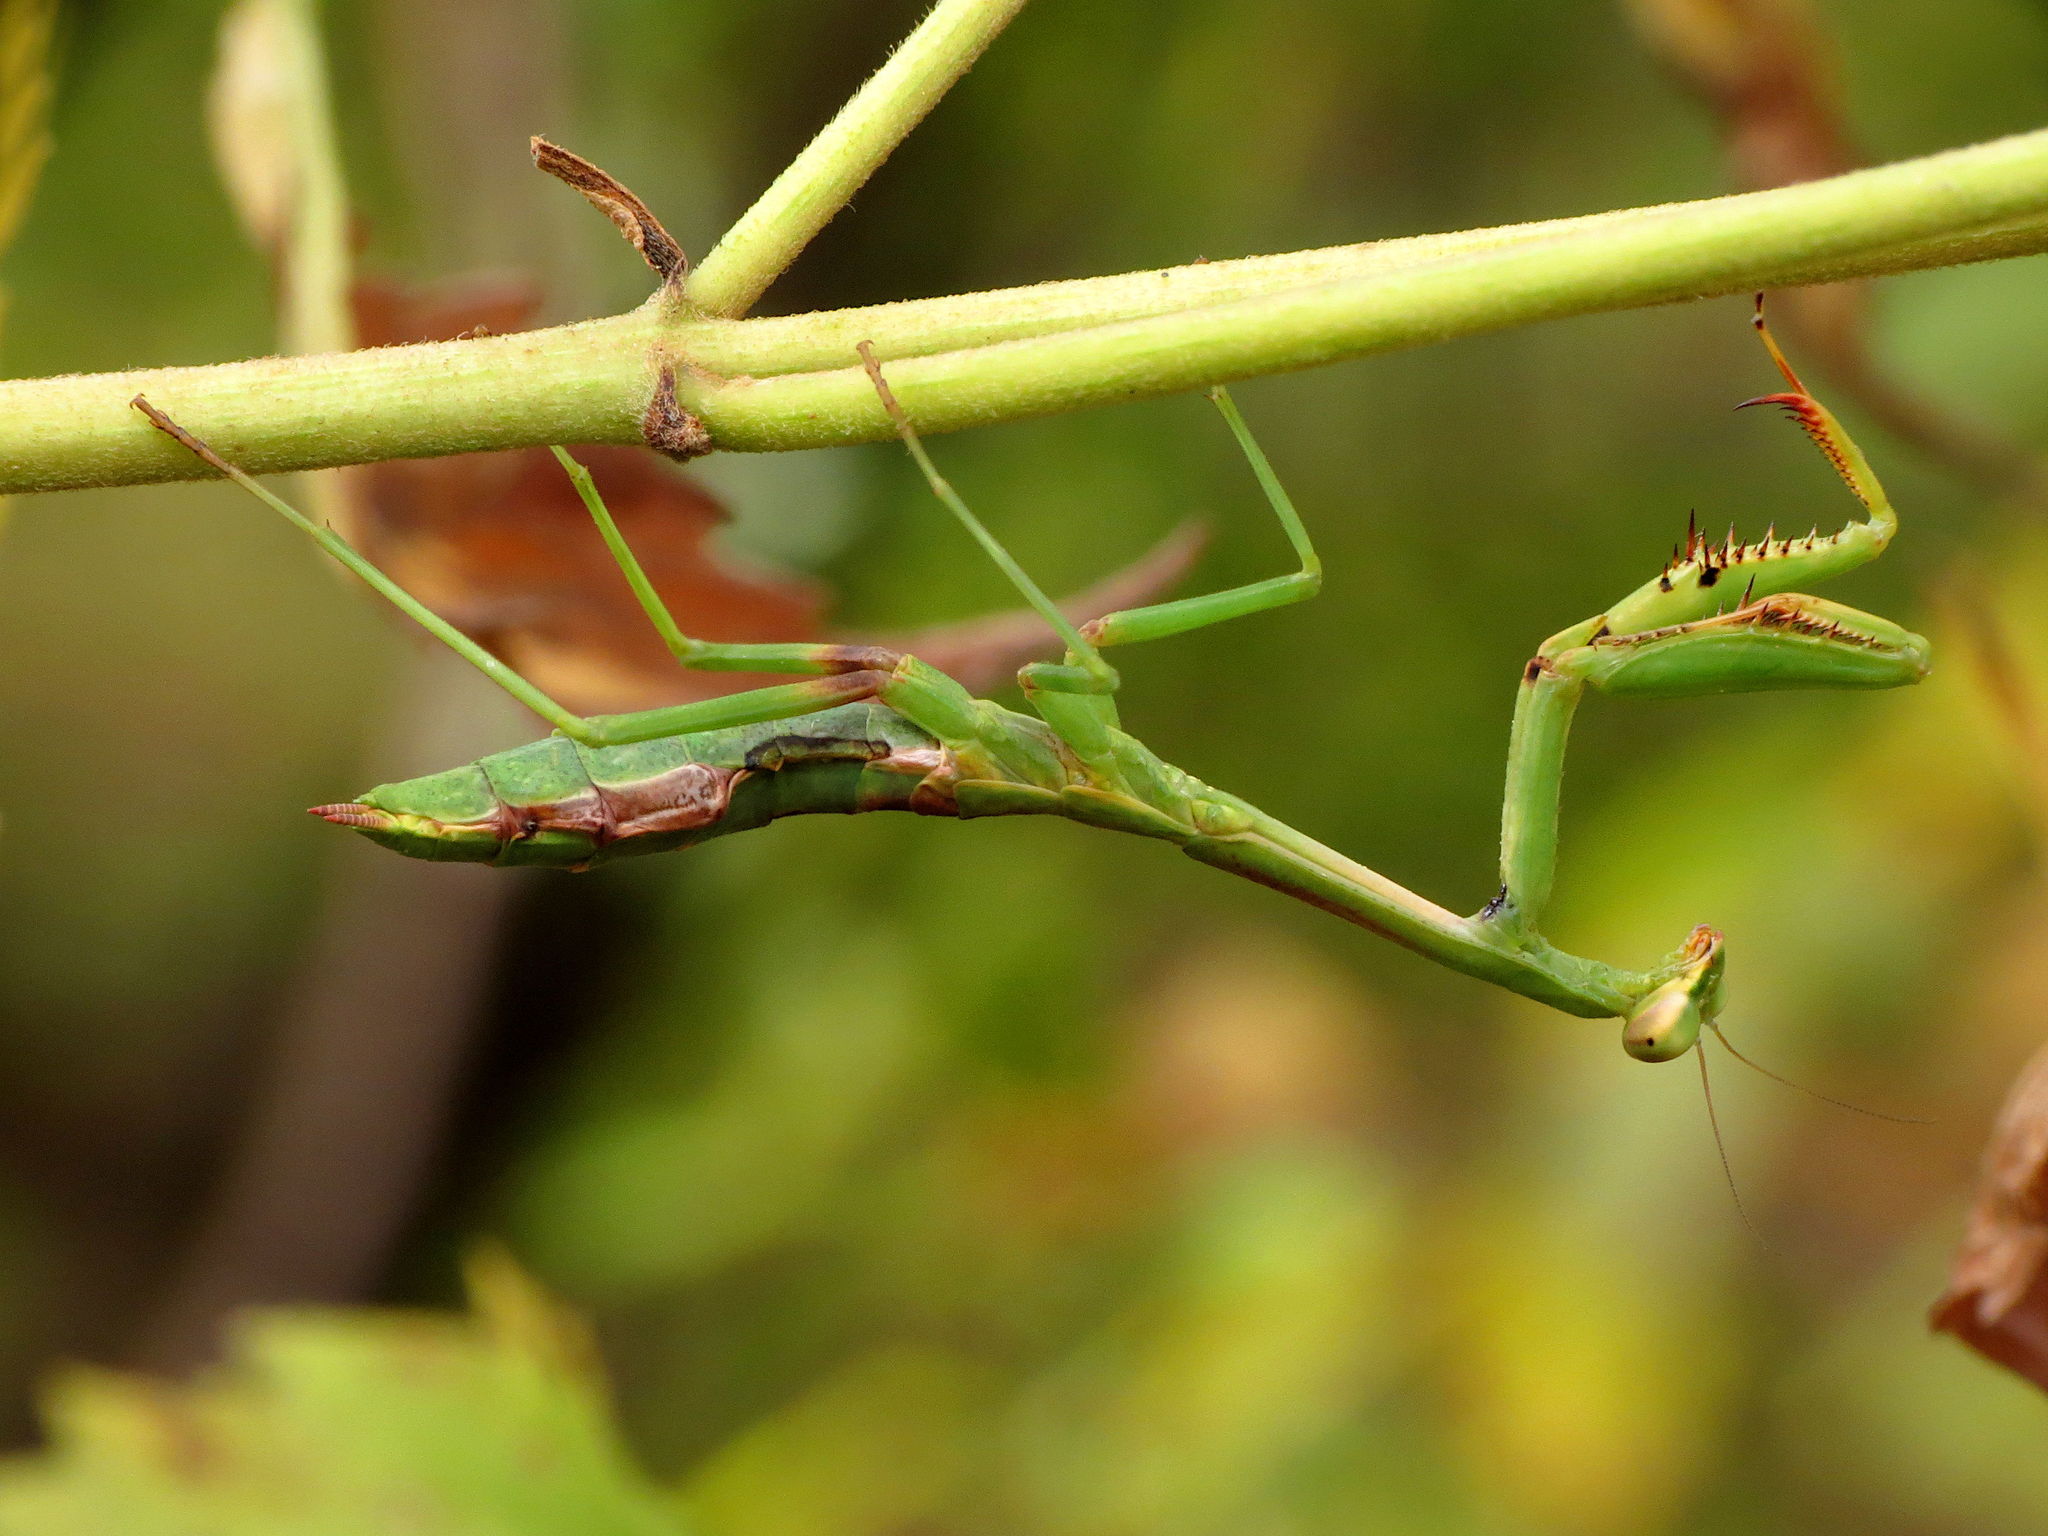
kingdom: Animalia
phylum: Arthropoda
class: Insecta
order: Mantodea
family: Mantidae
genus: Stagmomantis
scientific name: Stagmomantis carolina
